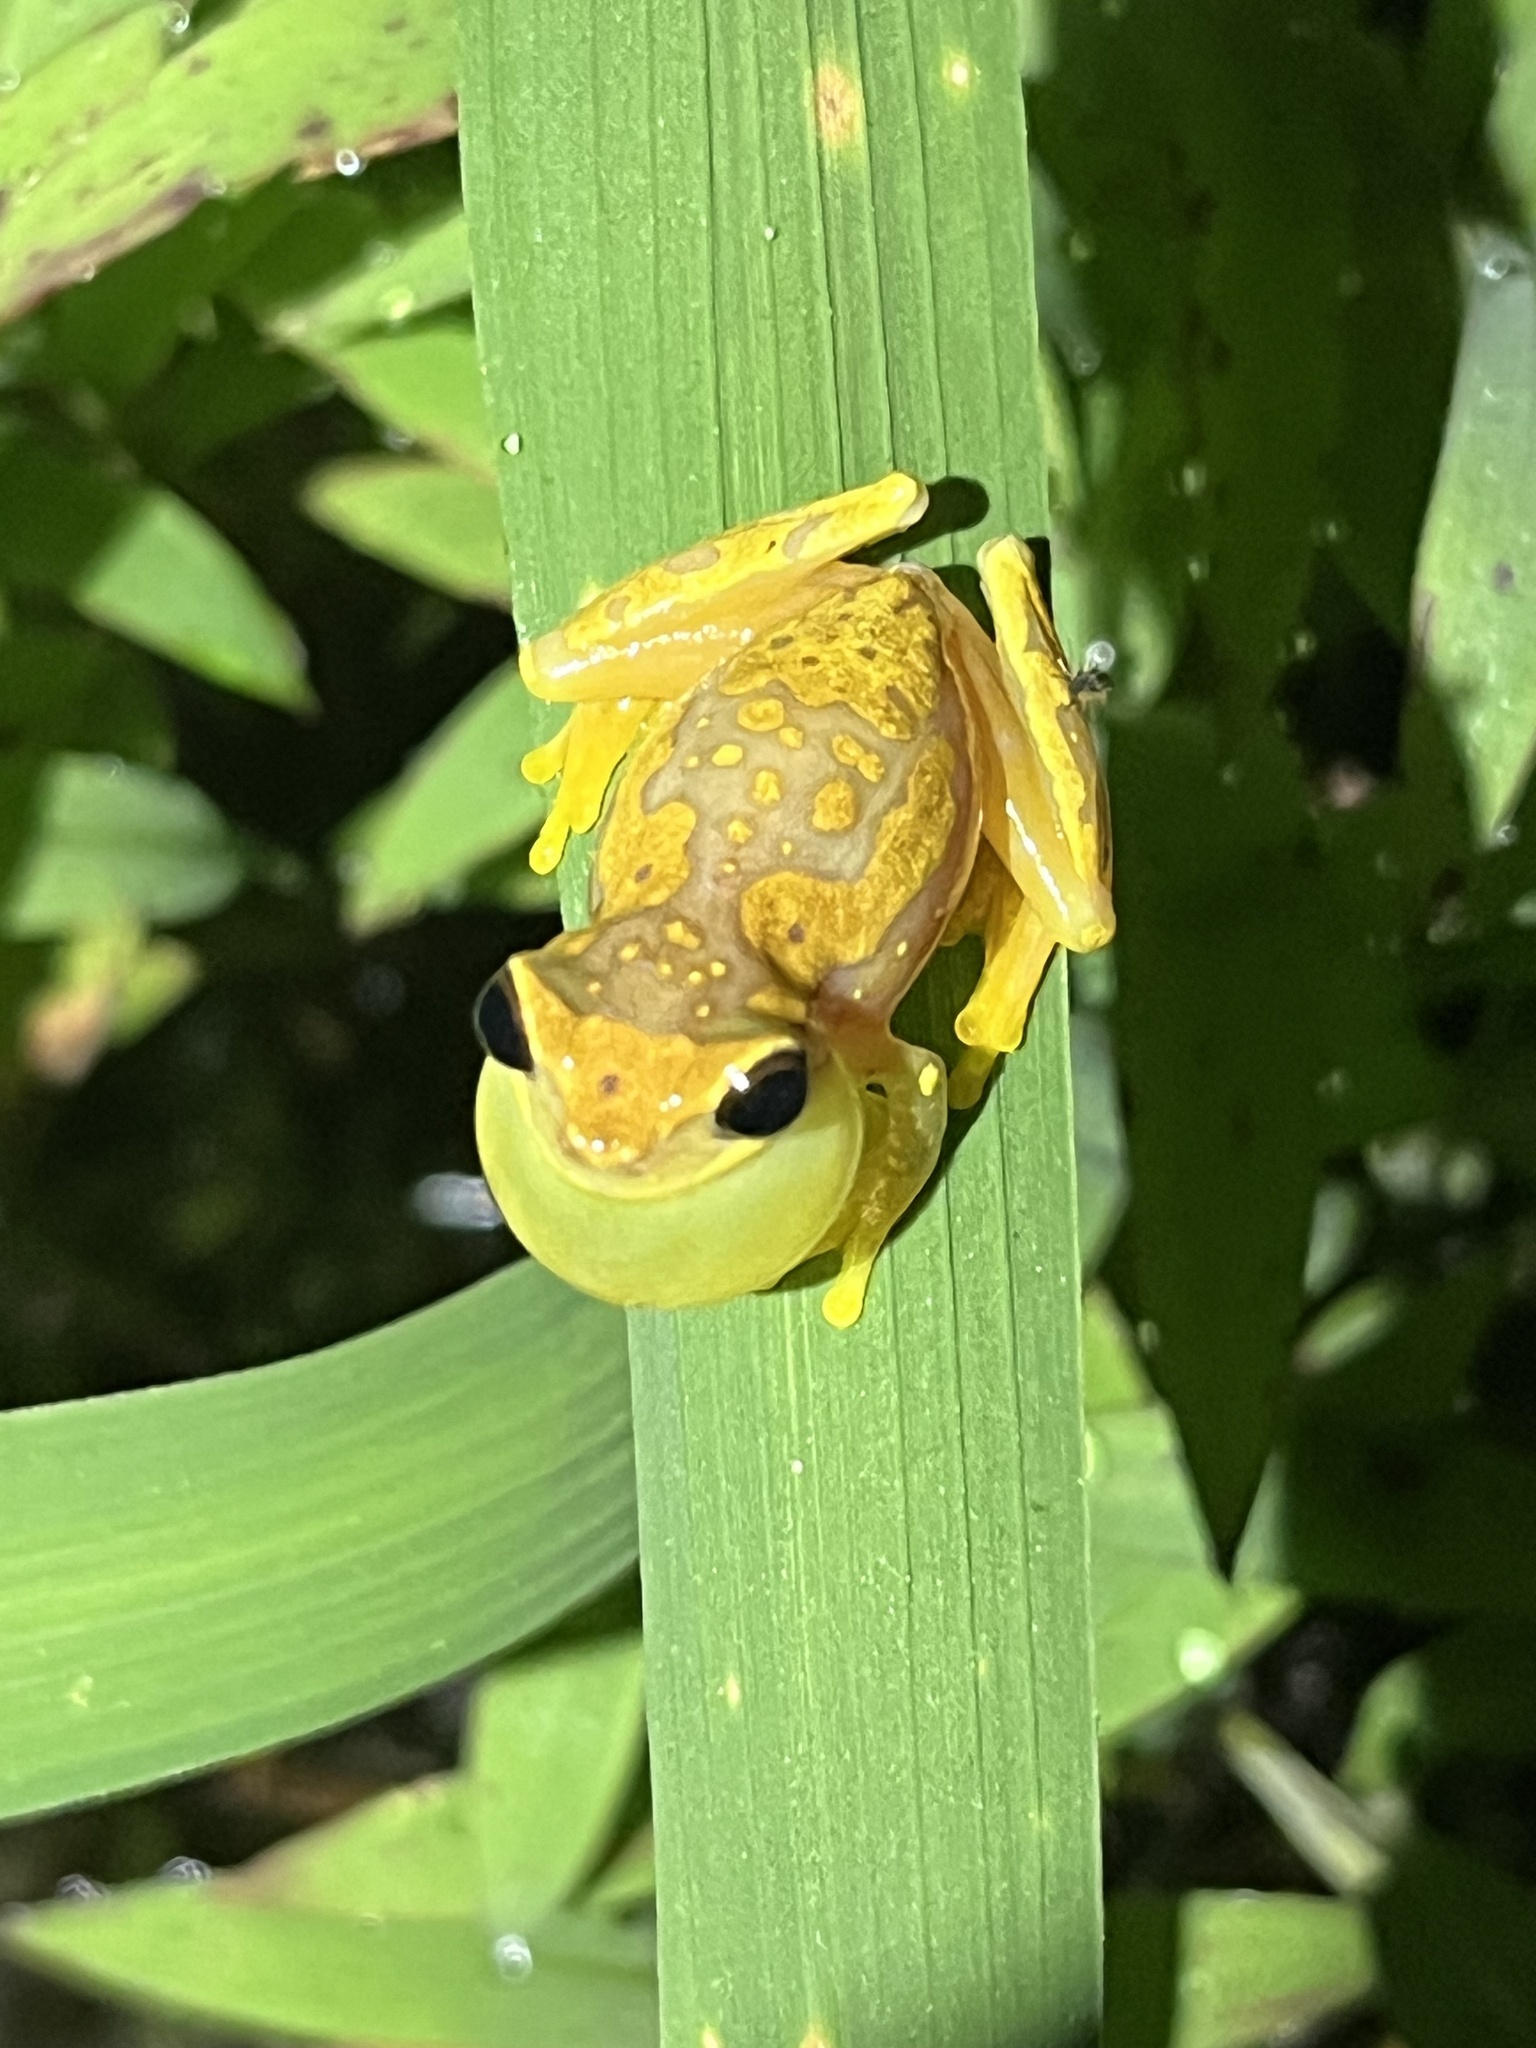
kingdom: Animalia
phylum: Chordata
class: Amphibia
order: Anura
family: Hylidae
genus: Dendropsophus
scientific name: Dendropsophus ebraccatus
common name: Hourglass treefrog
